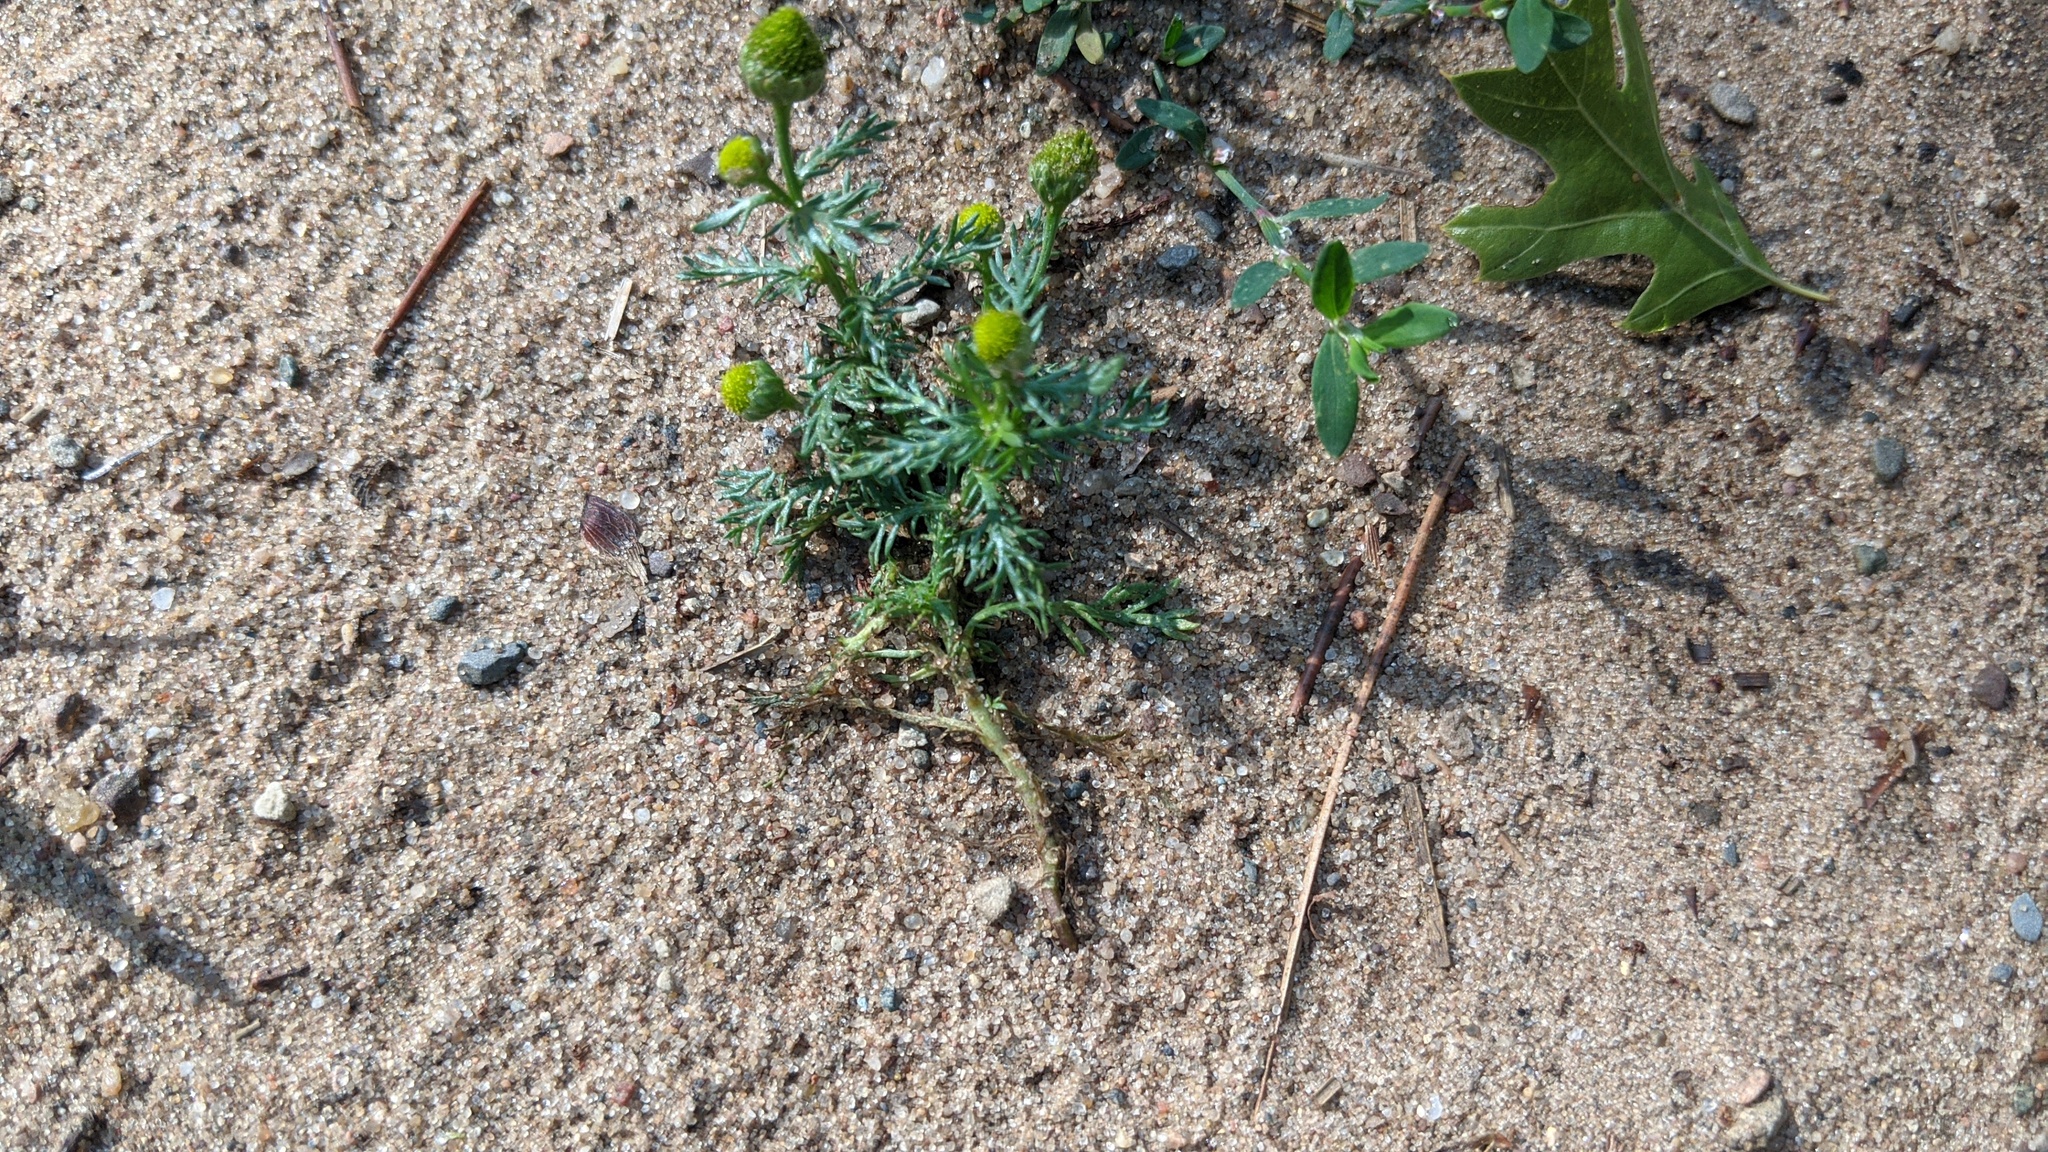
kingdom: Plantae
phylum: Tracheophyta
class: Magnoliopsida
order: Asterales
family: Asteraceae
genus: Matricaria
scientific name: Matricaria discoidea
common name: Disc mayweed
